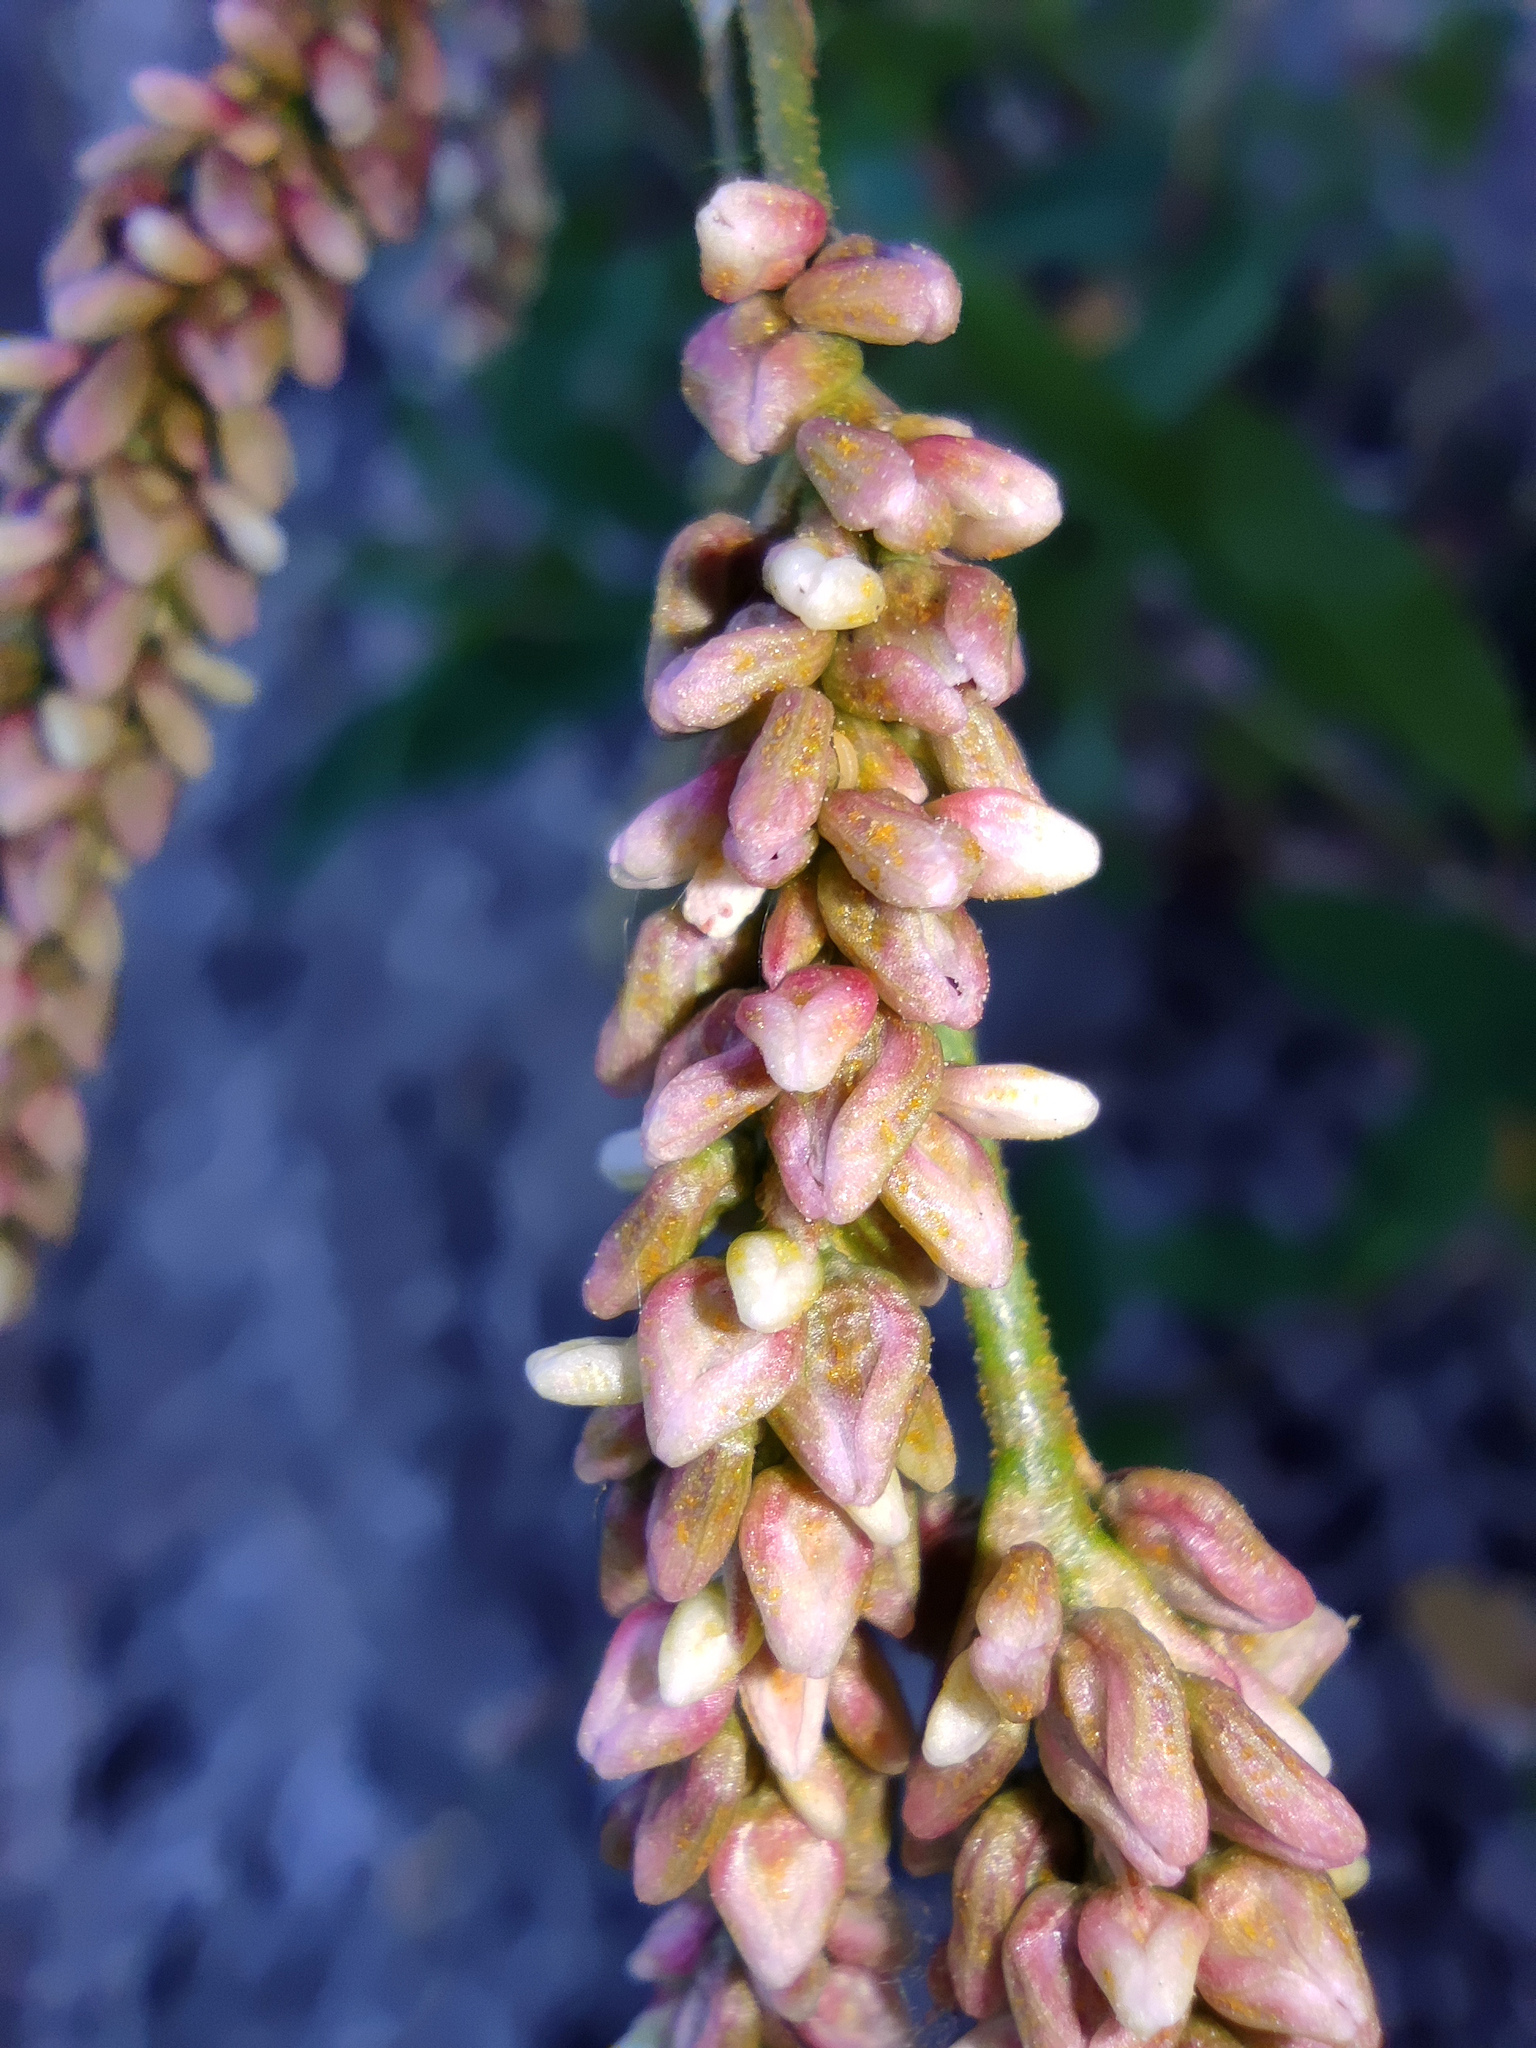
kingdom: Plantae
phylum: Tracheophyta
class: Magnoliopsida
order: Caryophyllales
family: Polygonaceae
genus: Persicaria
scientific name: Persicaria lapathifolia
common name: Curlytop knotweed
